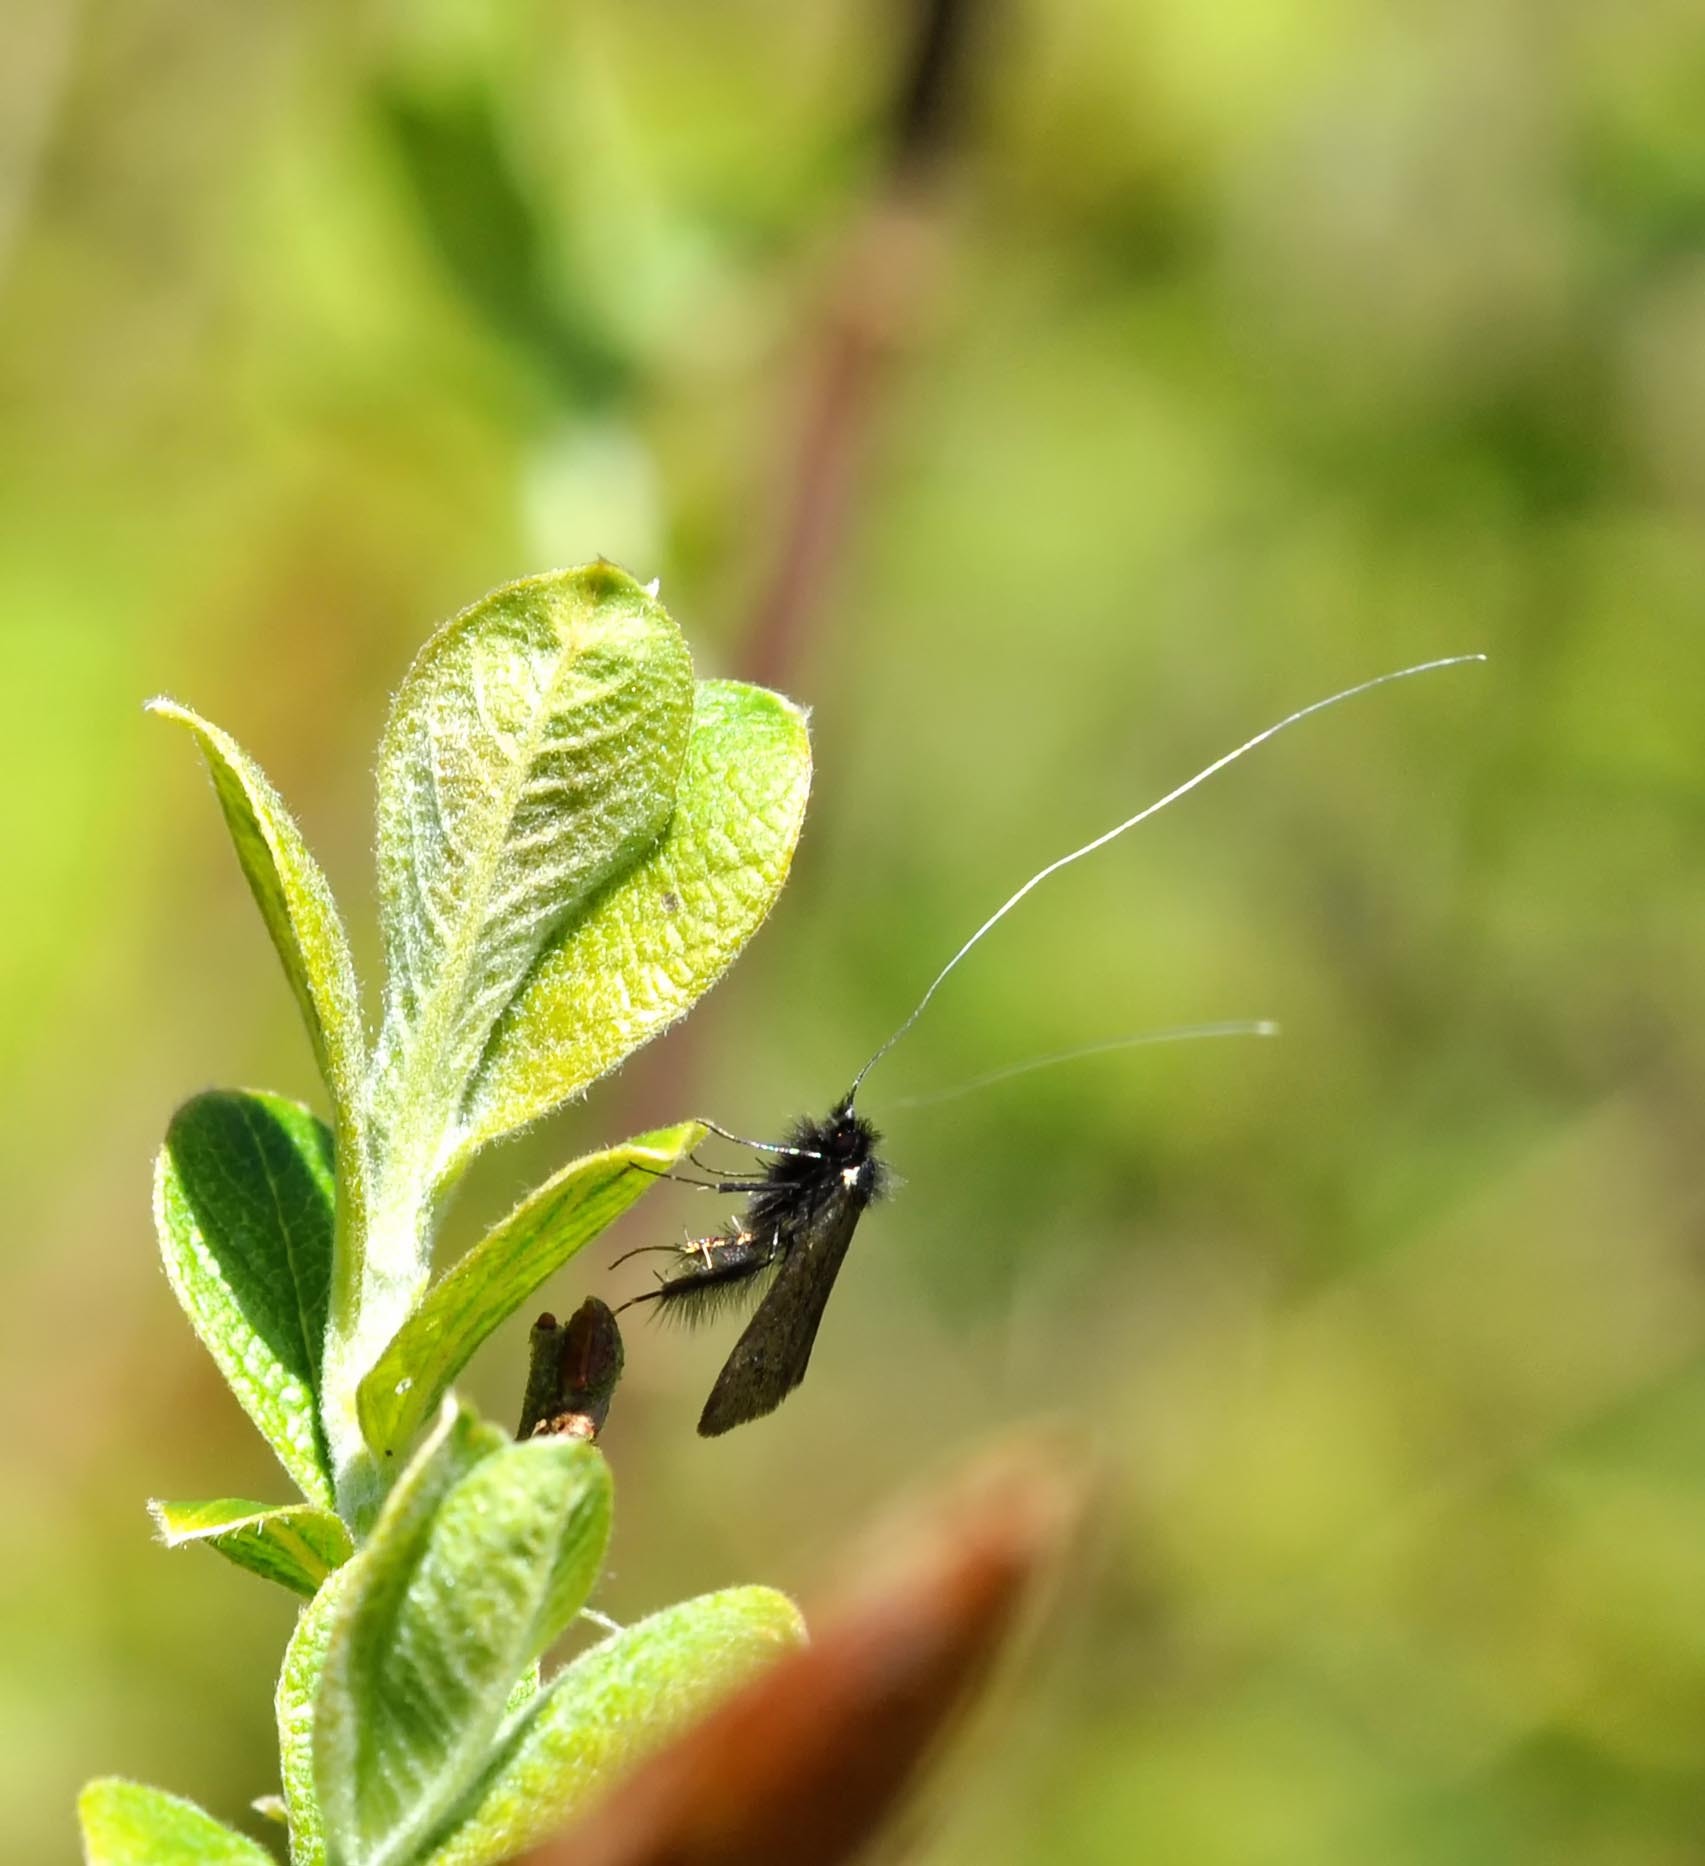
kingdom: Animalia
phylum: Arthropoda
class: Insecta
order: Lepidoptera
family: Adelidae
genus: Adela
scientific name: Adela viridella
